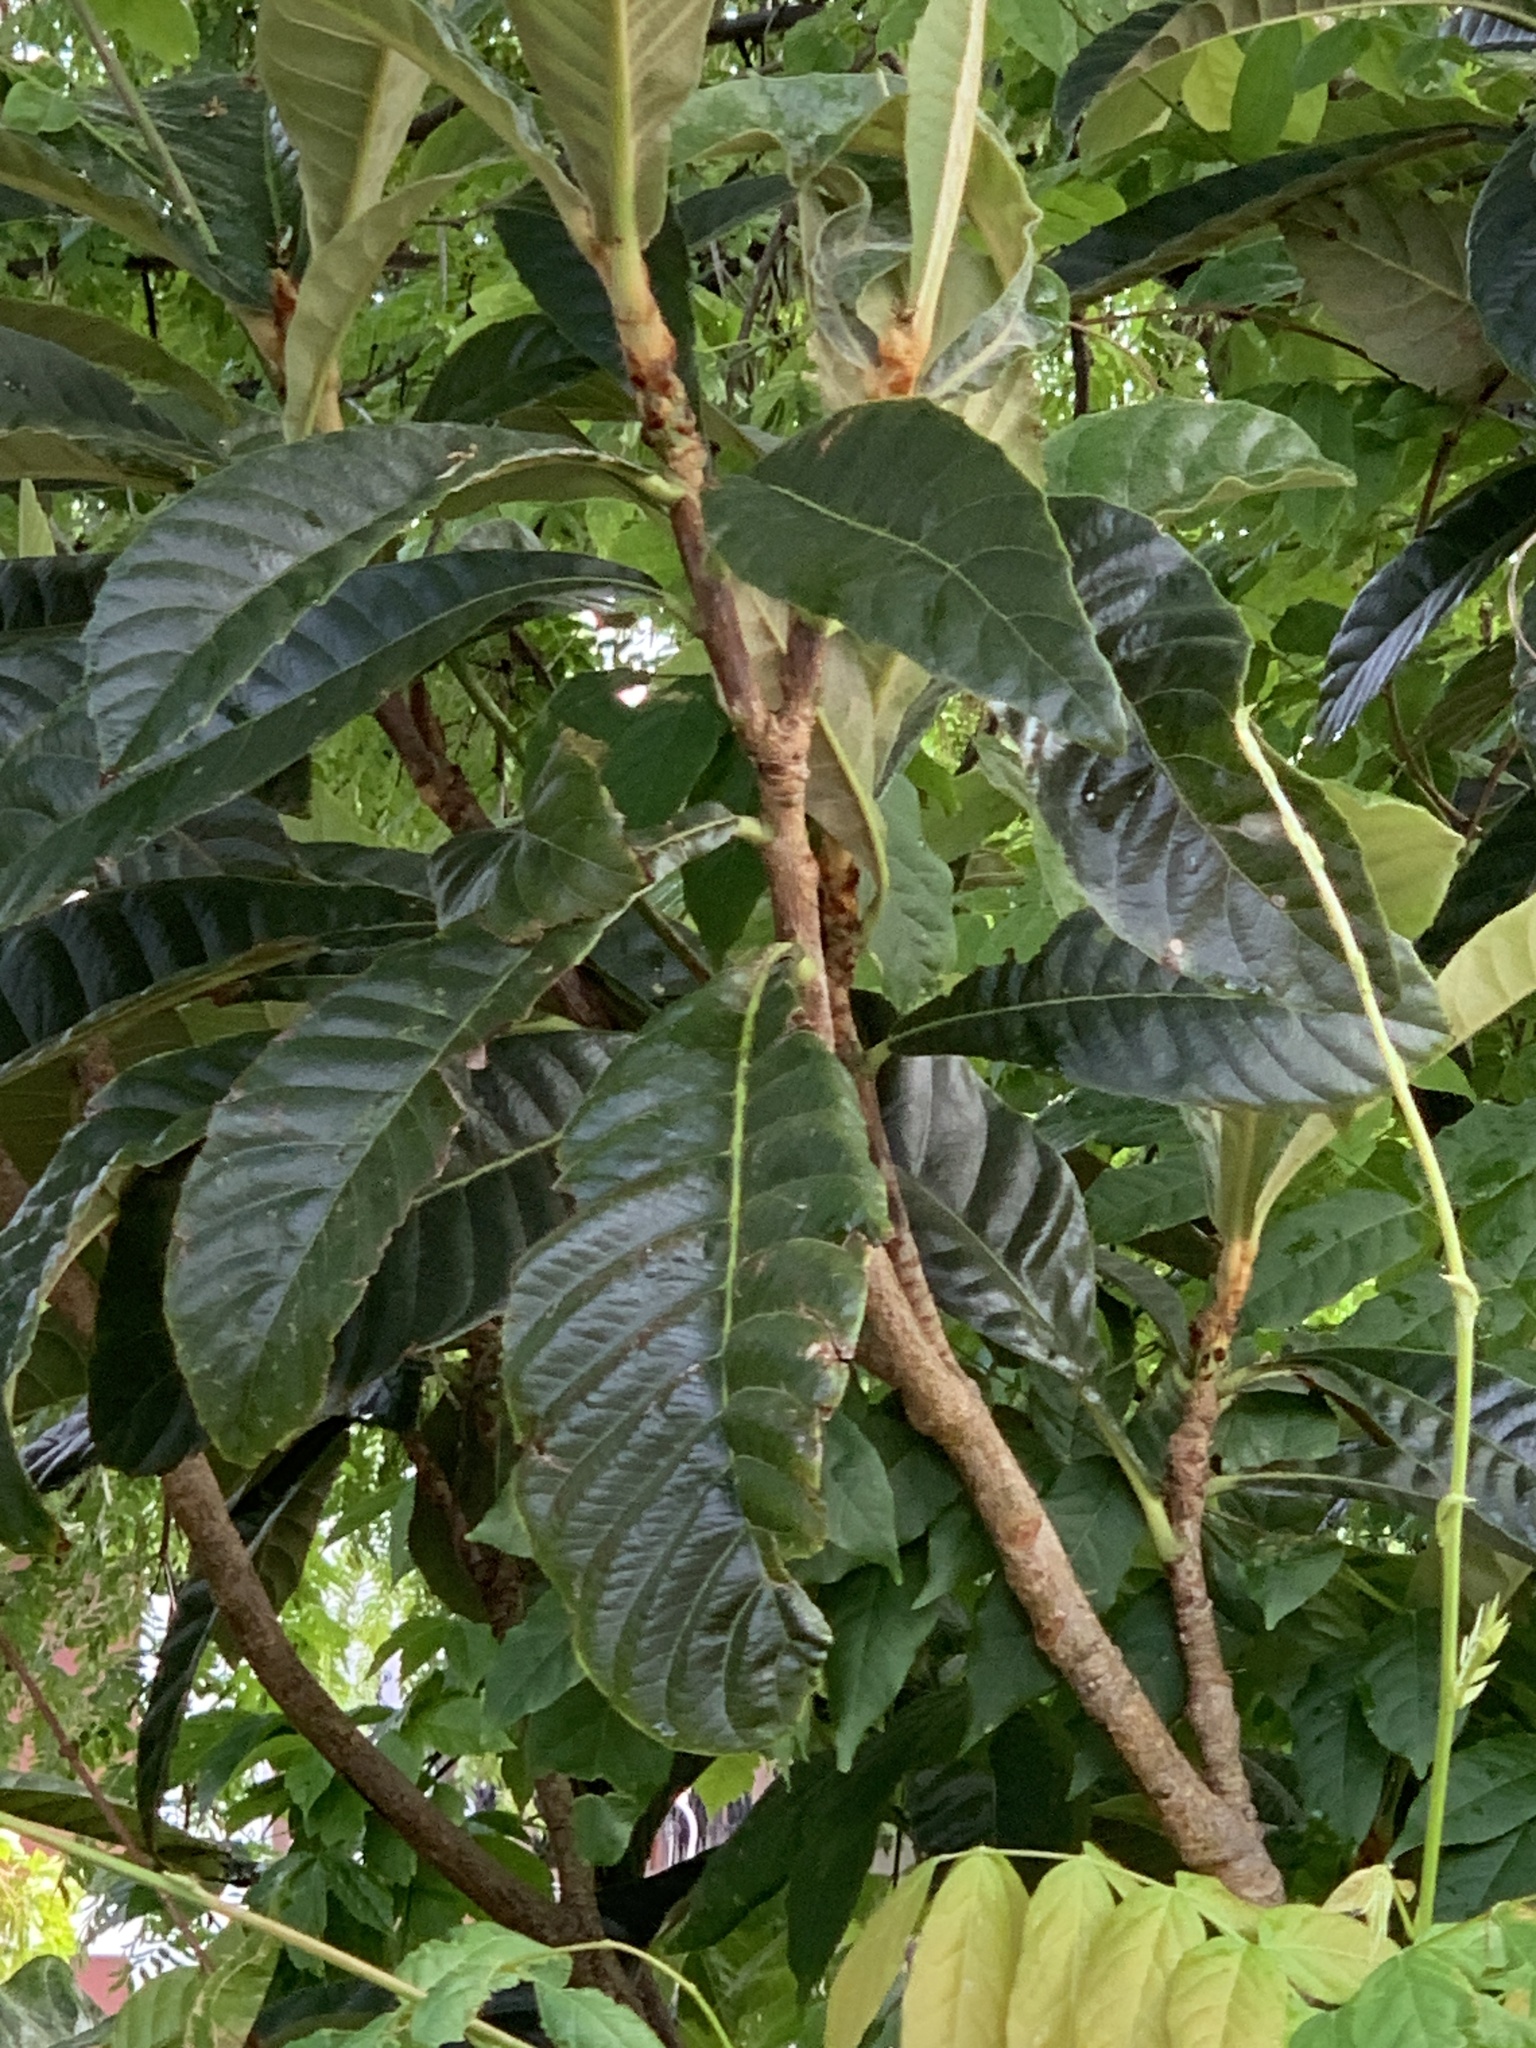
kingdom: Plantae
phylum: Tracheophyta
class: Magnoliopsida
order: Rosales
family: Rosaceae
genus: Rhaphiolepis
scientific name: Rhaphiolepis bibas
